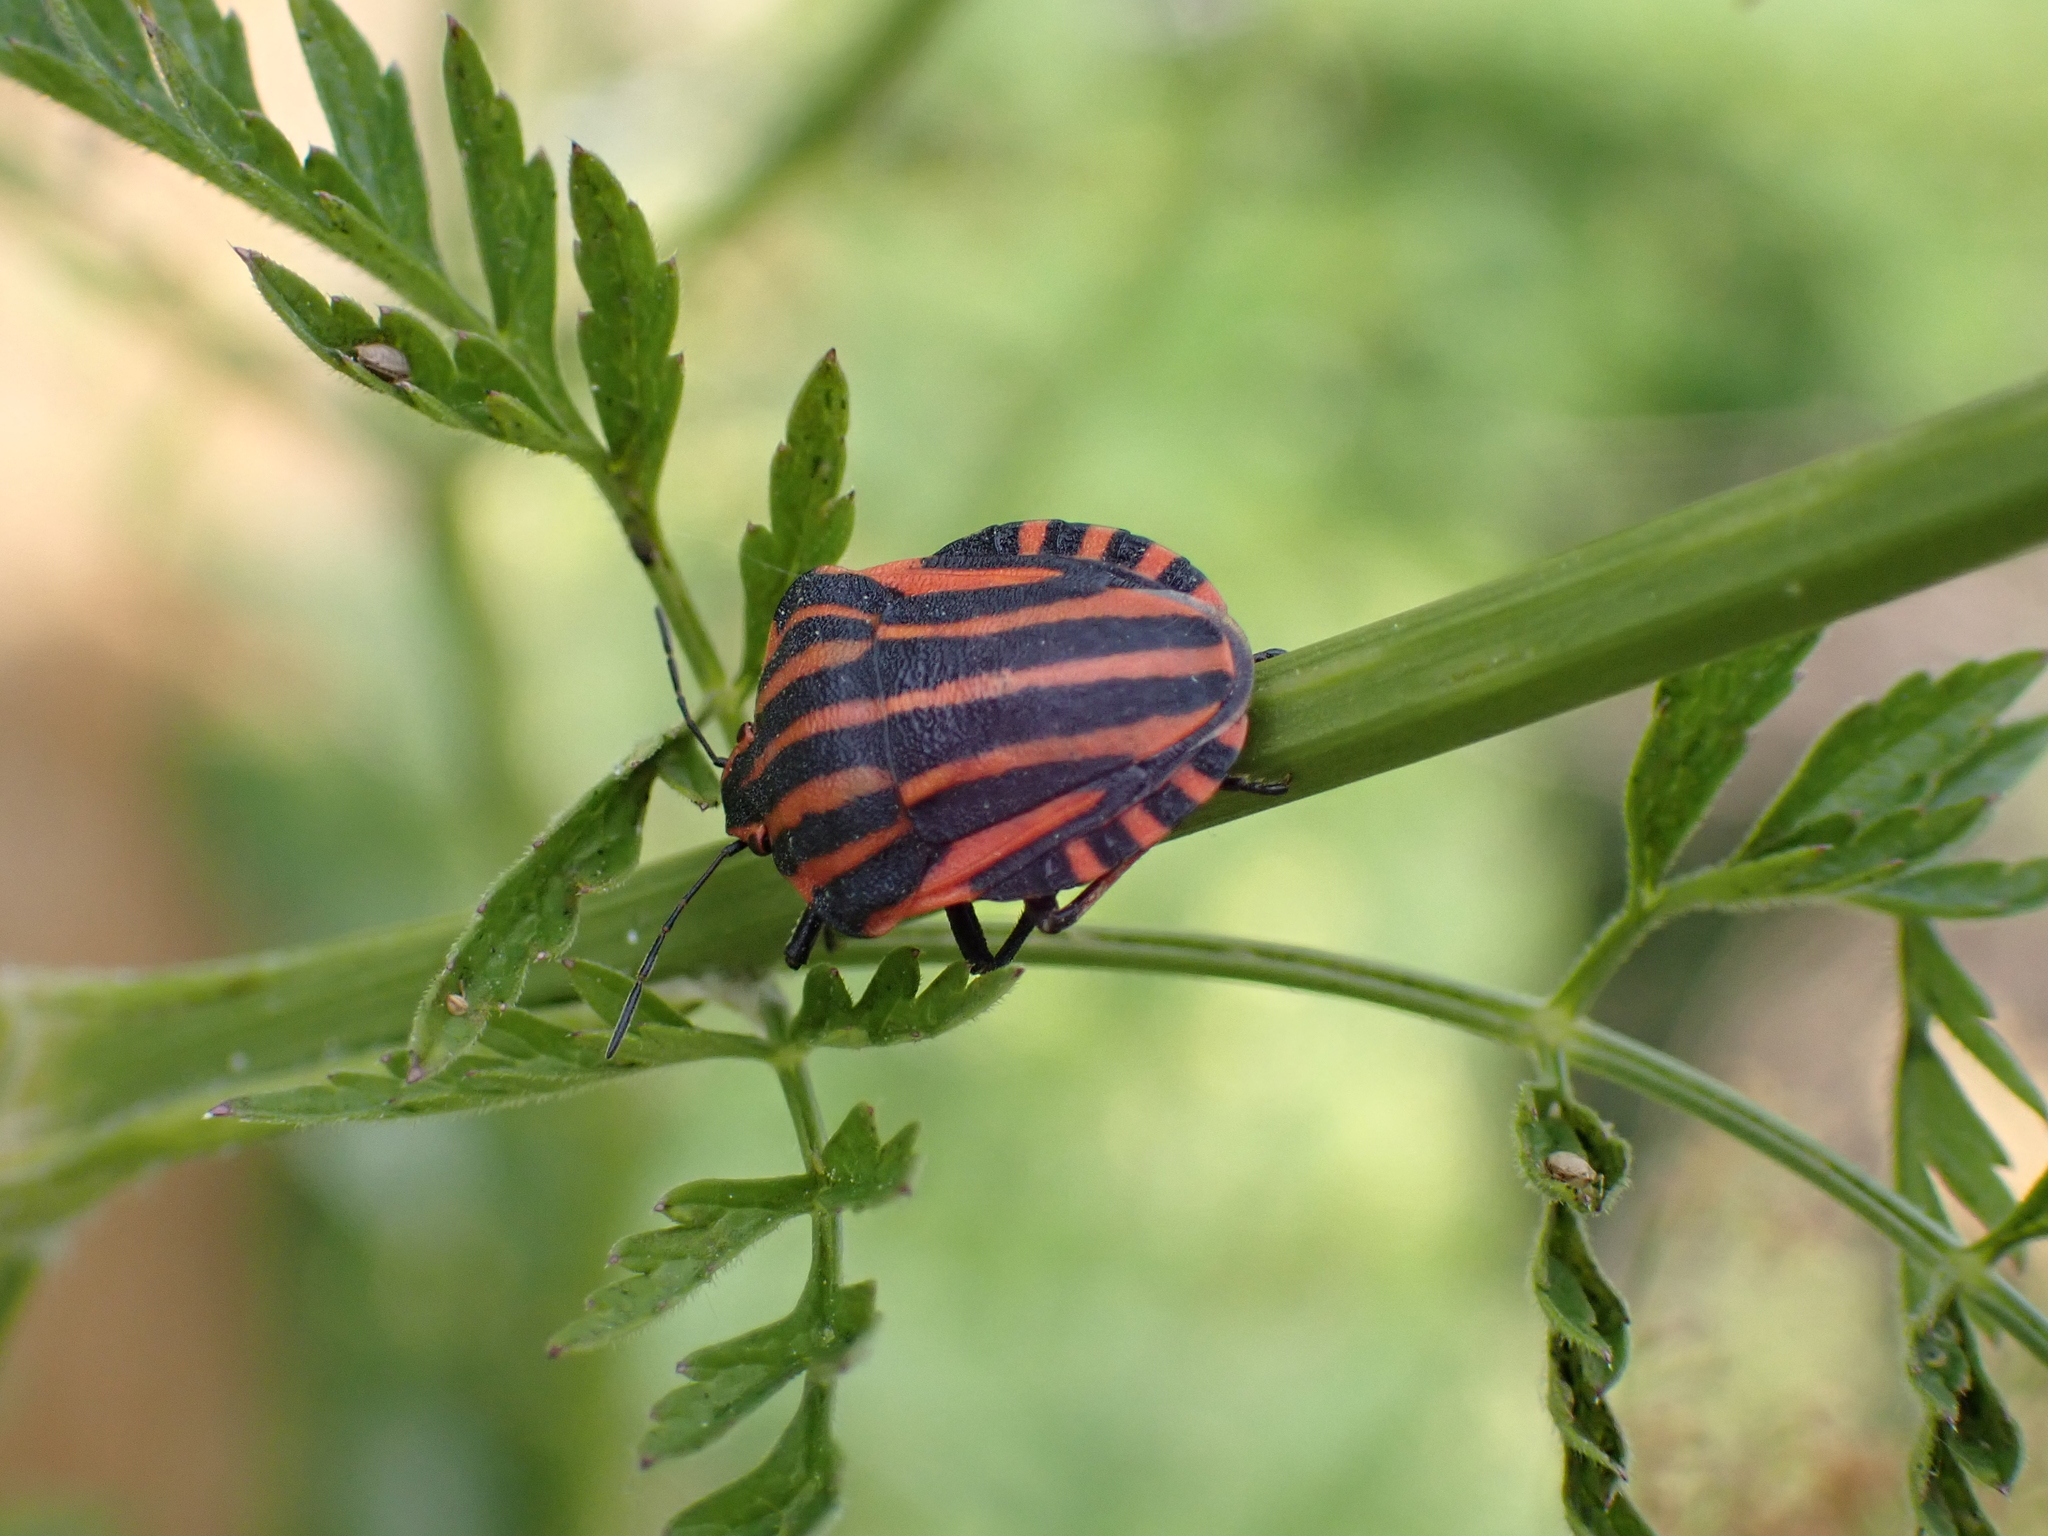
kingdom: Animalia
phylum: Arthropoda
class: Insecta
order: Hemiptera
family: Pentatomidae
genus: Graphosoma
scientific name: Graphosoma italicum
